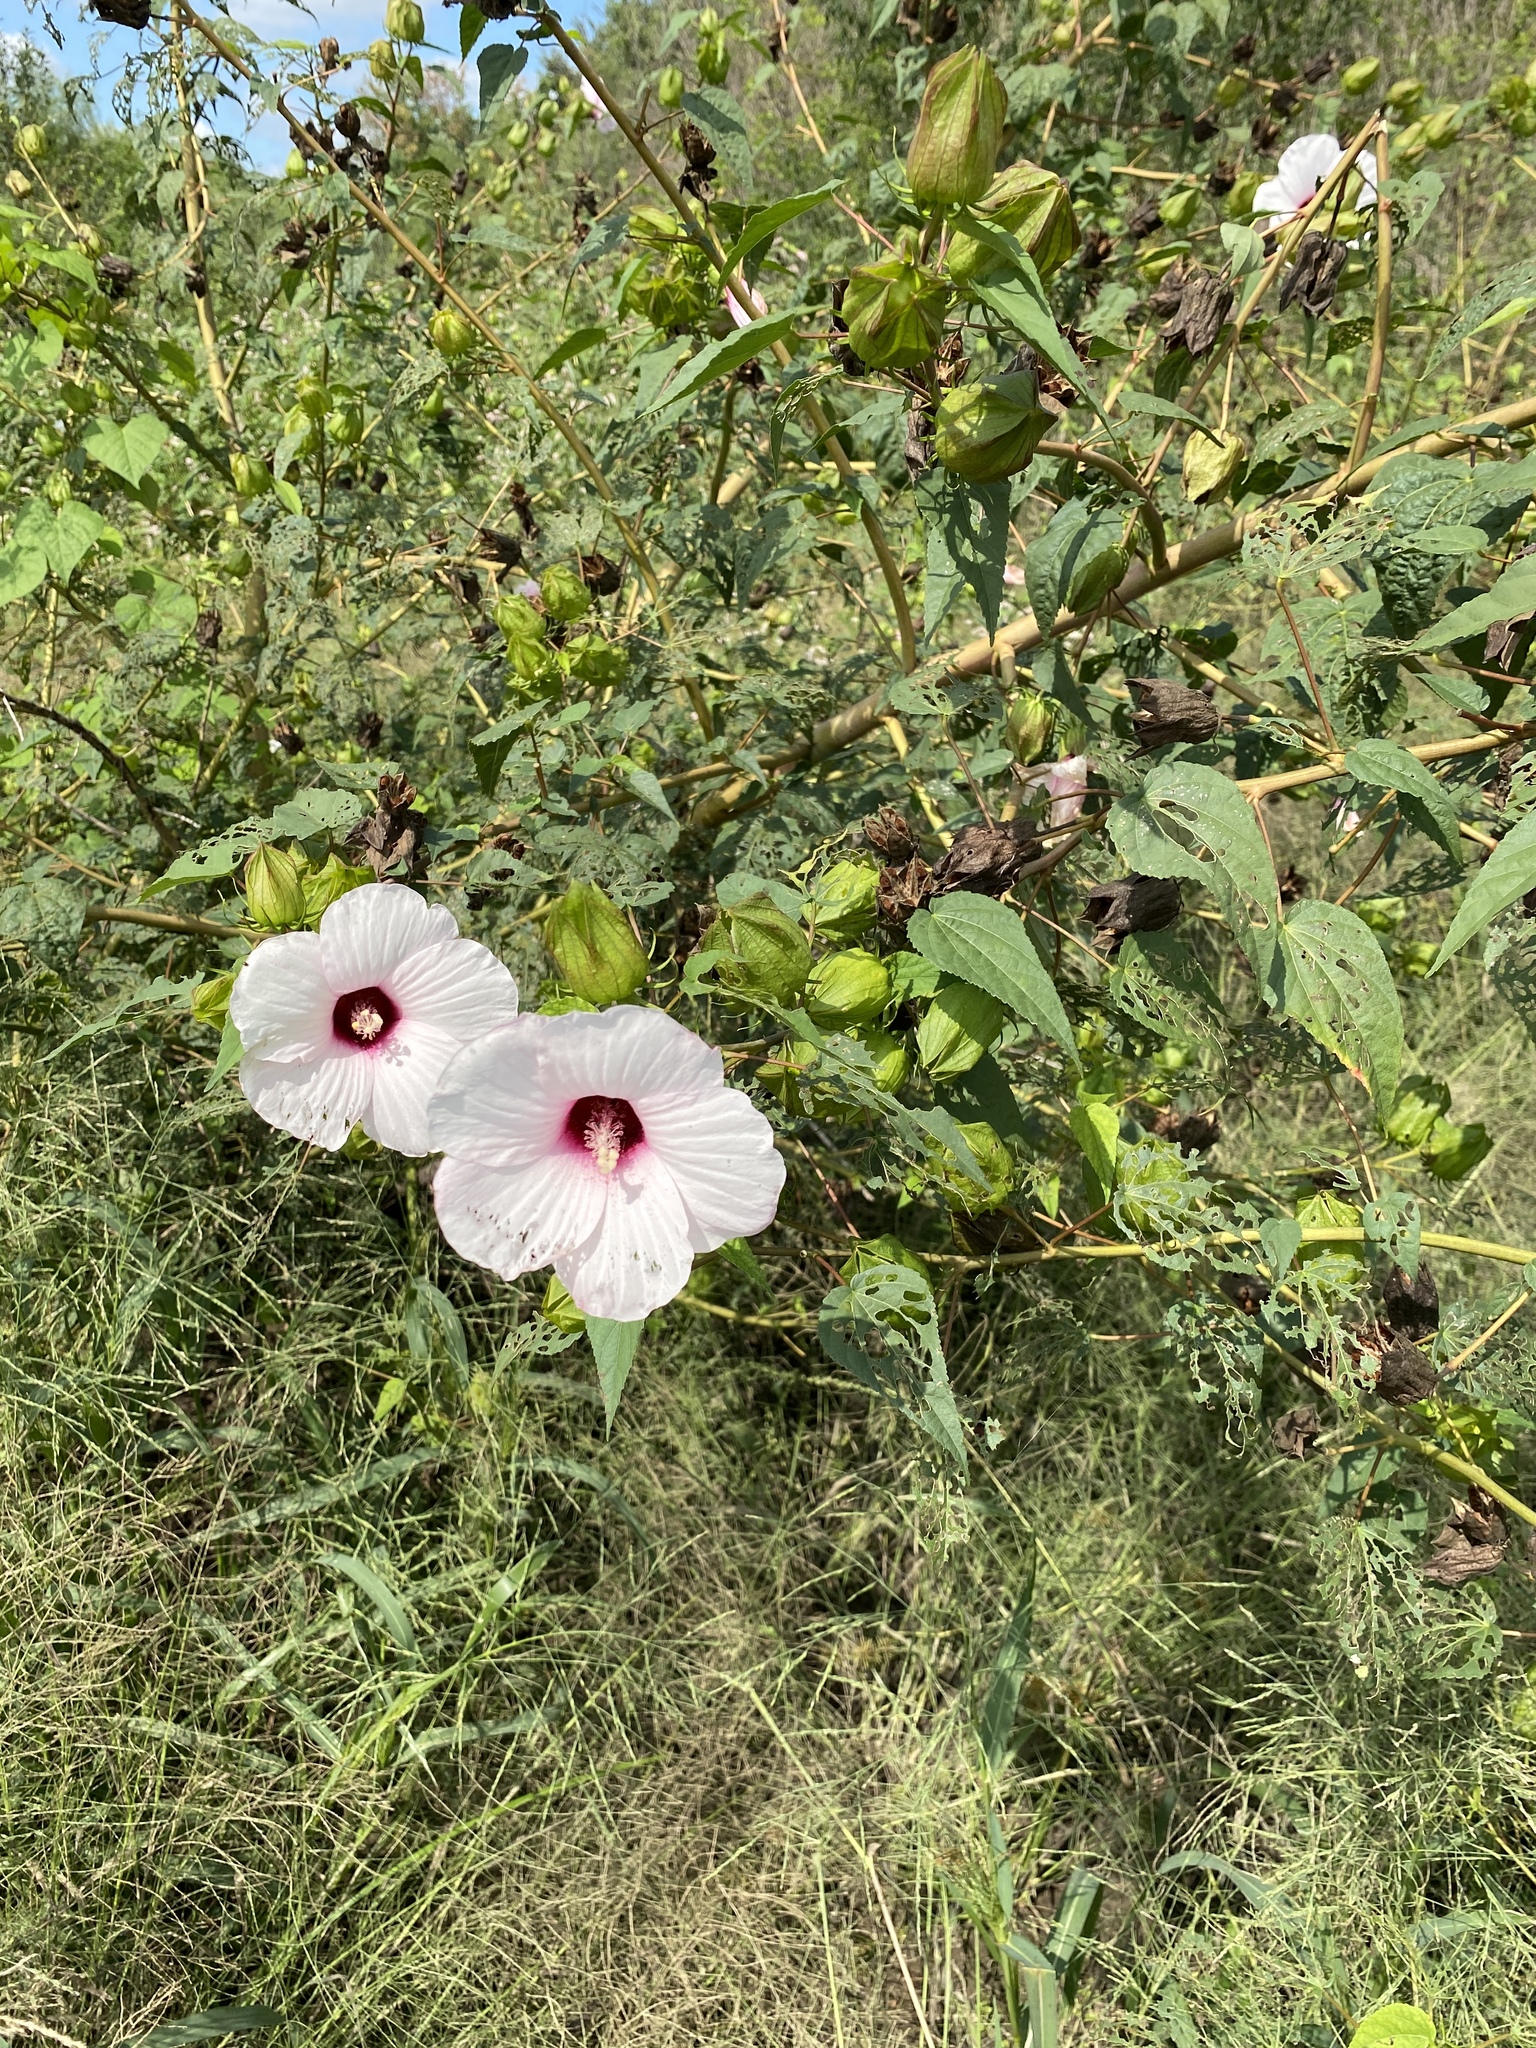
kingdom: Plantae
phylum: Tracheophyta
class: Magnoliopsida
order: Malvales
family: Malvaceae
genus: Hibiscus
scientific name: Hibiscus laevis
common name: Scarlet rose-mallow
